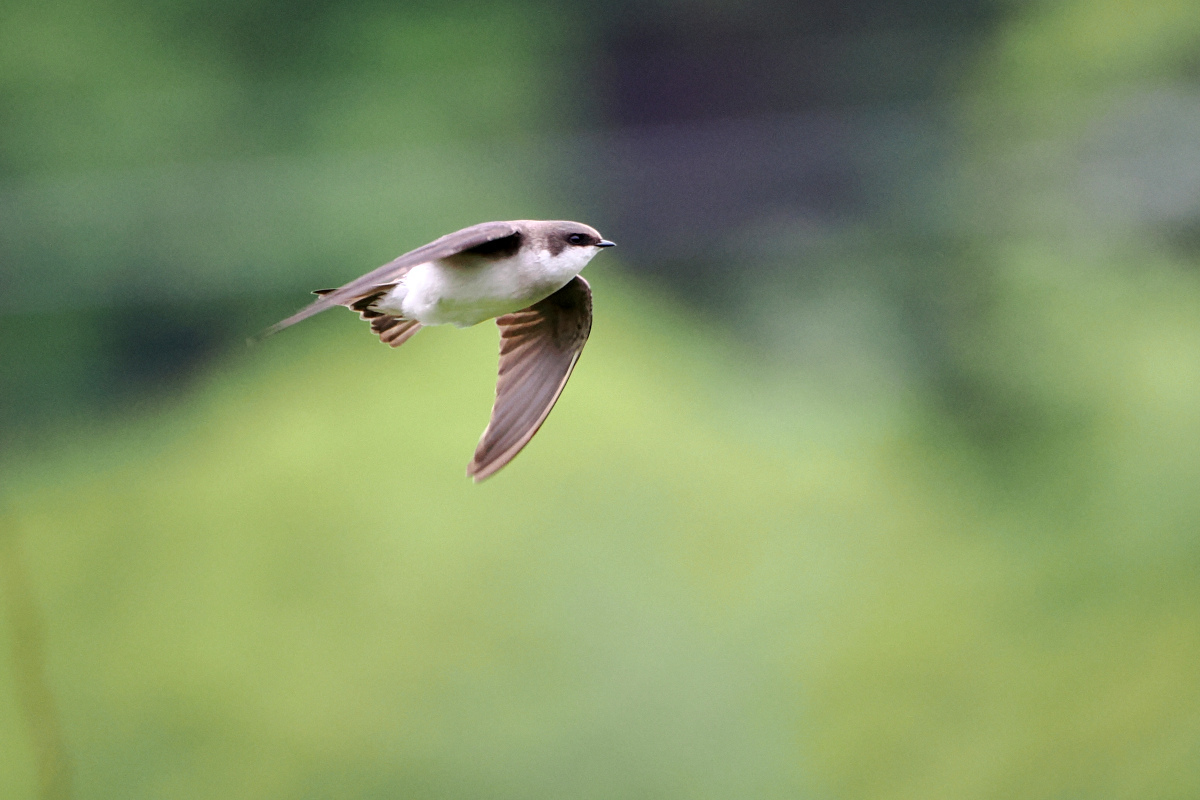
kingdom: Animalia
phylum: Chordata
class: Aves
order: Passeriformes
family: Hirundinidae
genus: Tachycineta
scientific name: Tachycineta bicolor
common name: Tree swallow
